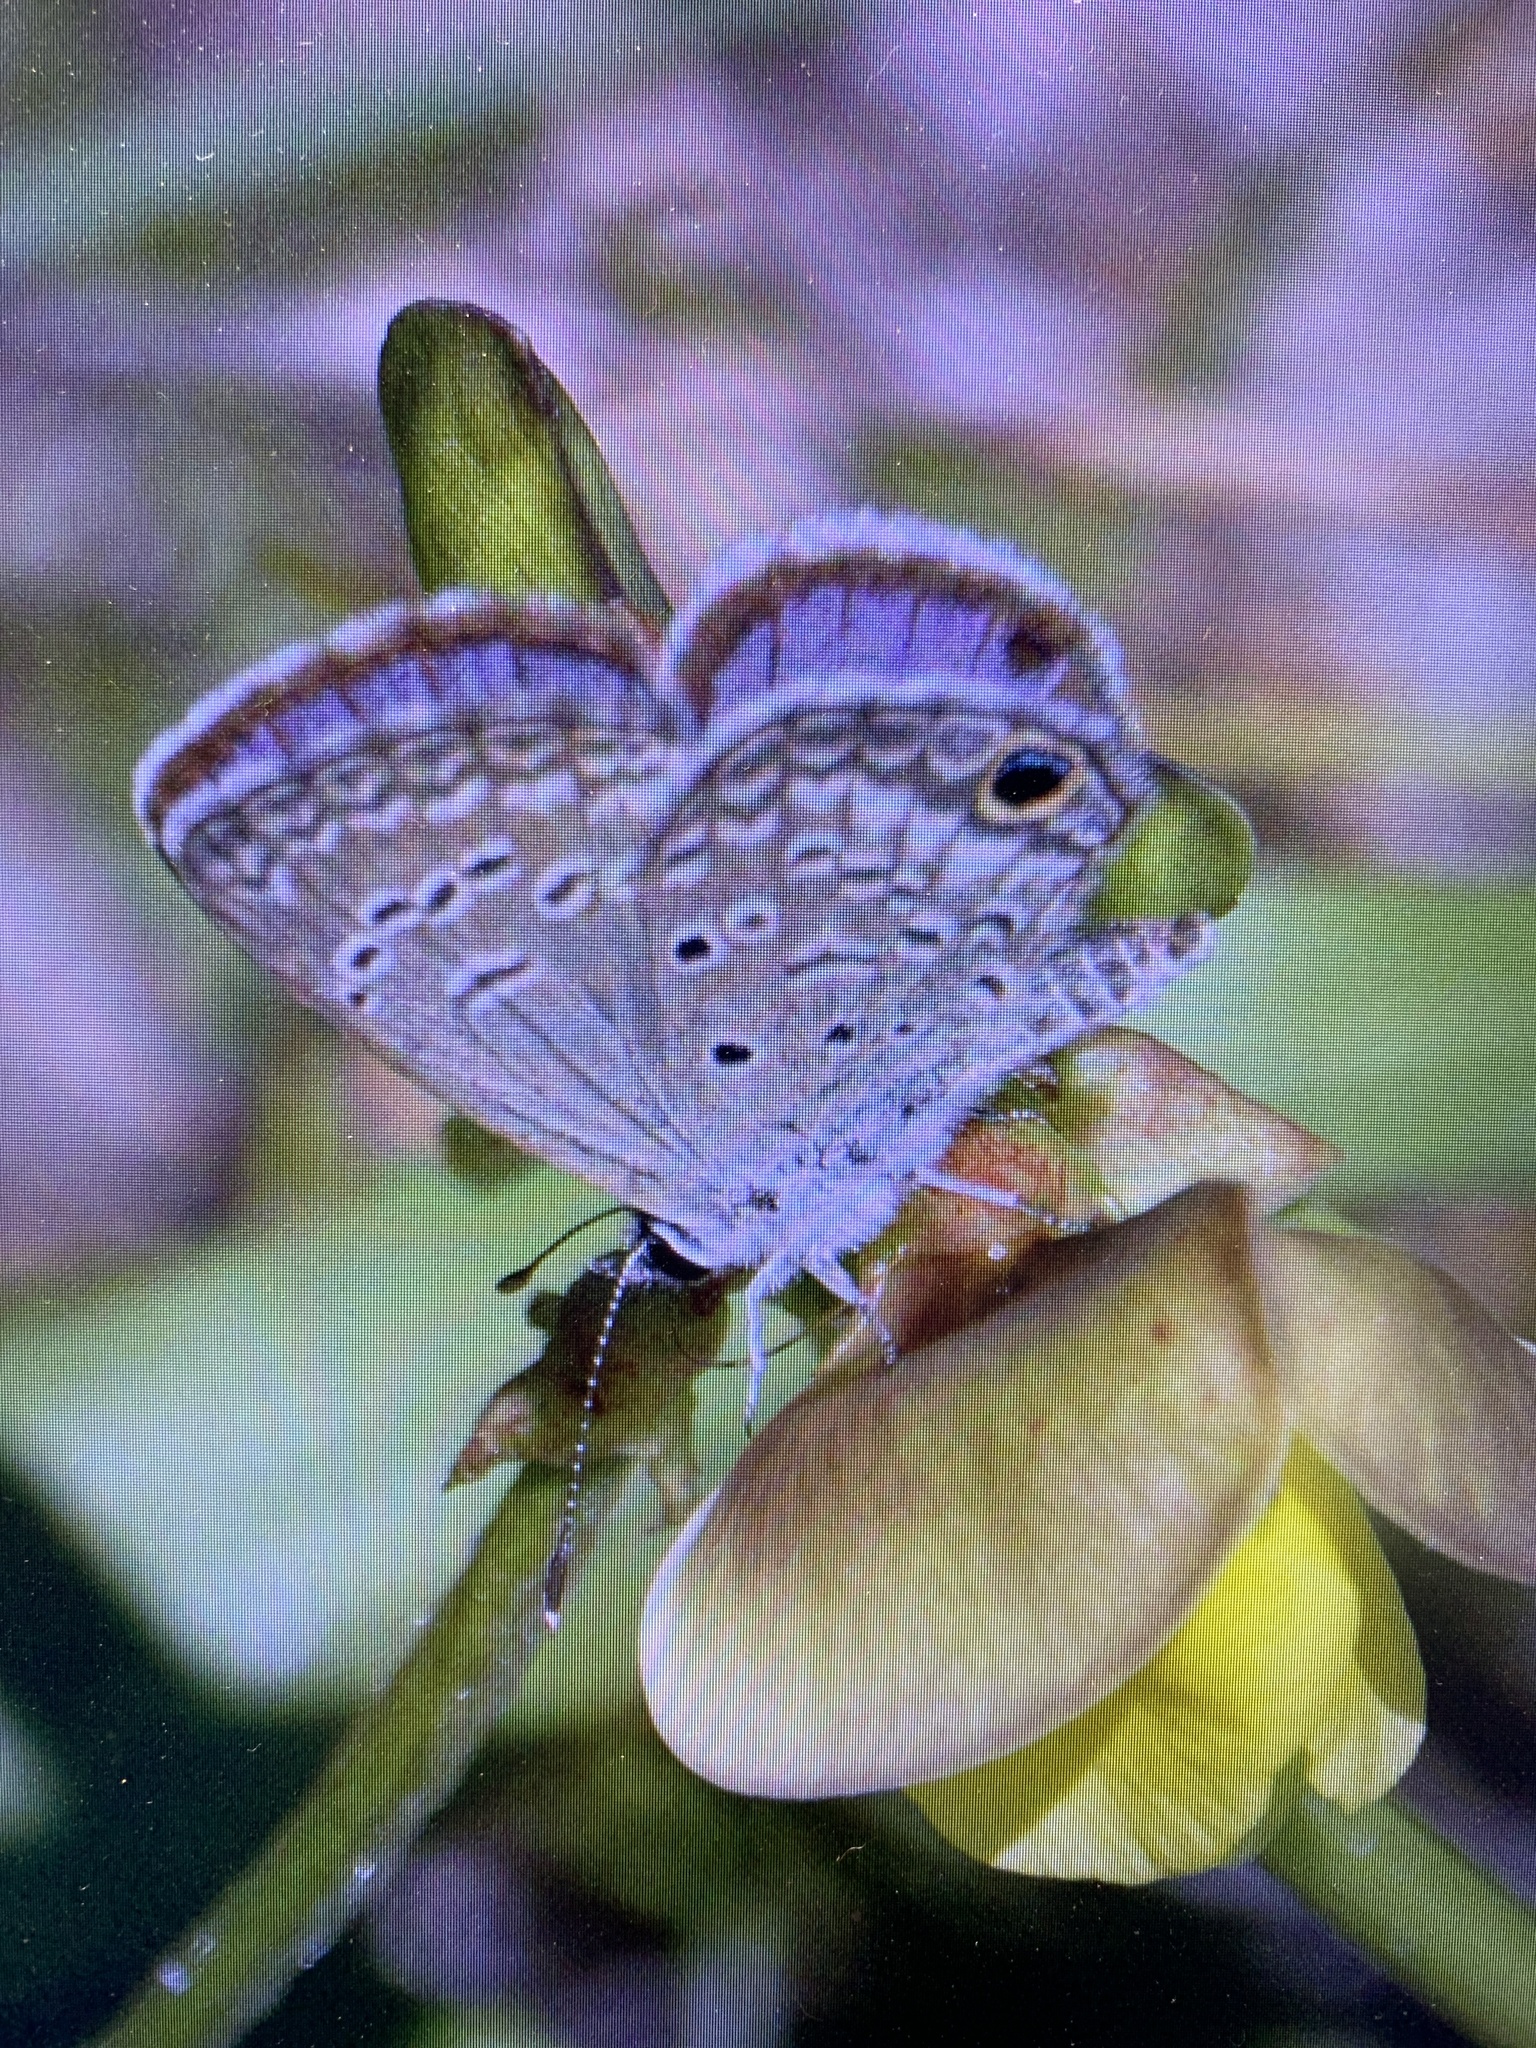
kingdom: Animalia
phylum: Arthropoda
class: Insecta
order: Lepidoptera
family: Lycaenidae
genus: Hemiargus
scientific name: Hemiargus ceraunus
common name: Ceraunus blue
